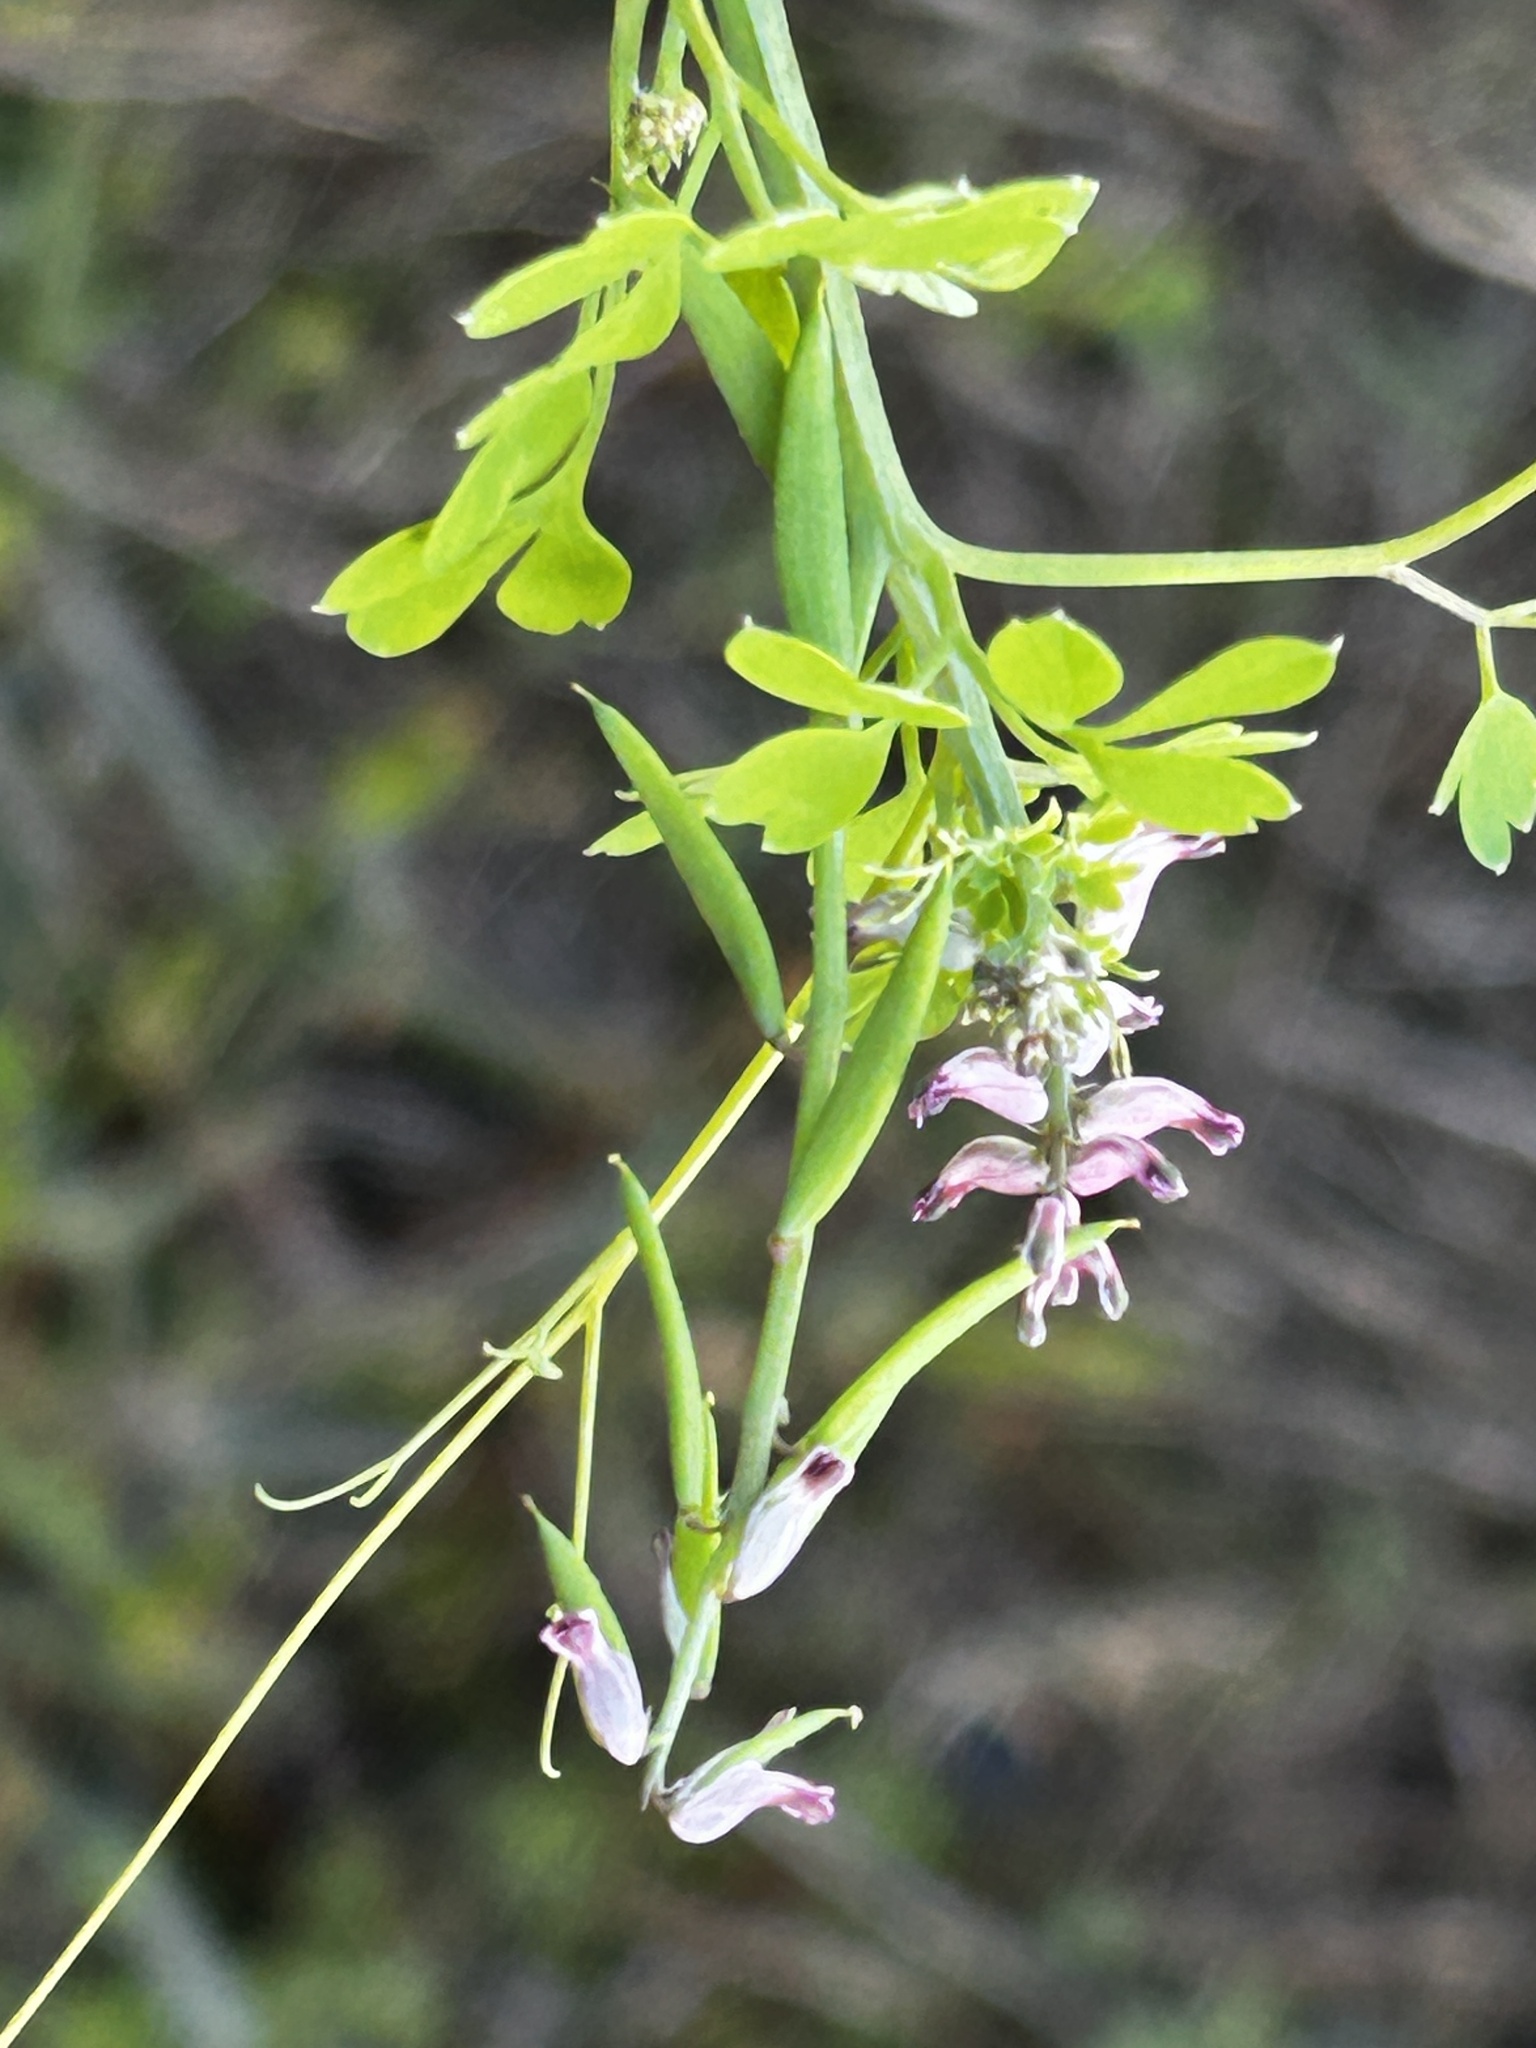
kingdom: Plantae
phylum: Tracheophyta
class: Magnoliopsida
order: Ranunculales
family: Papaveraceae
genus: Cysticapnos
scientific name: Cysticapnos cracca
